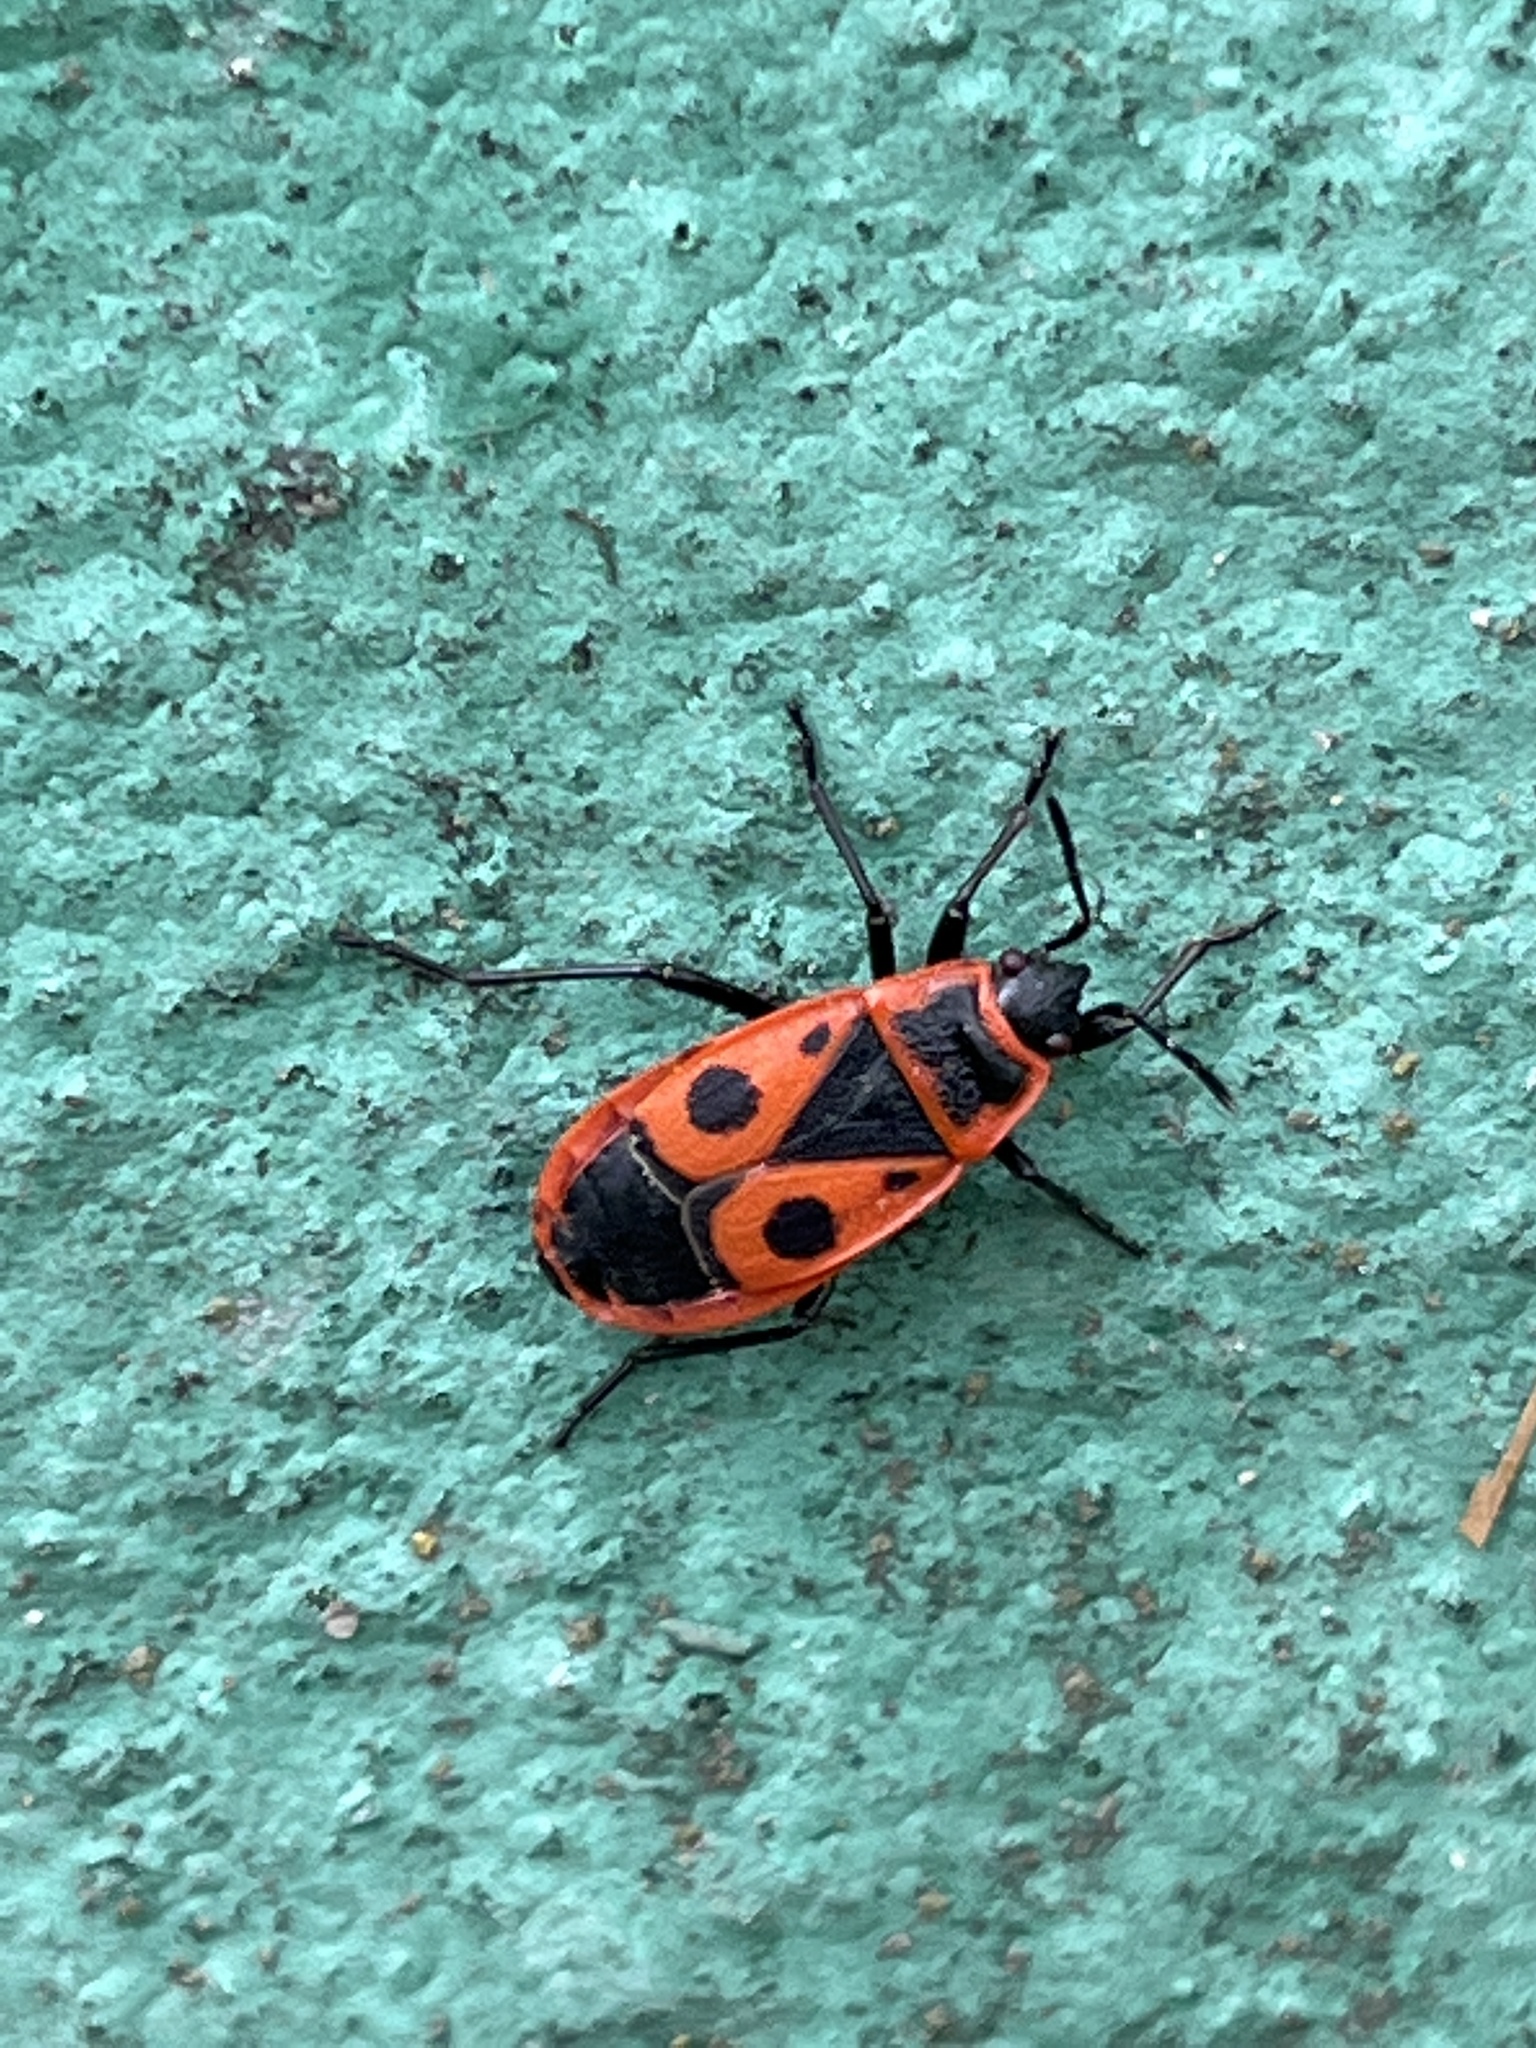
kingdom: Animalia
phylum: Arthropoda
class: Insecta
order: Hemiptera
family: Pyrrhocoridae
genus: Pyrrhocoris
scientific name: Pyrrhocoris apterus
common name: Firebug
